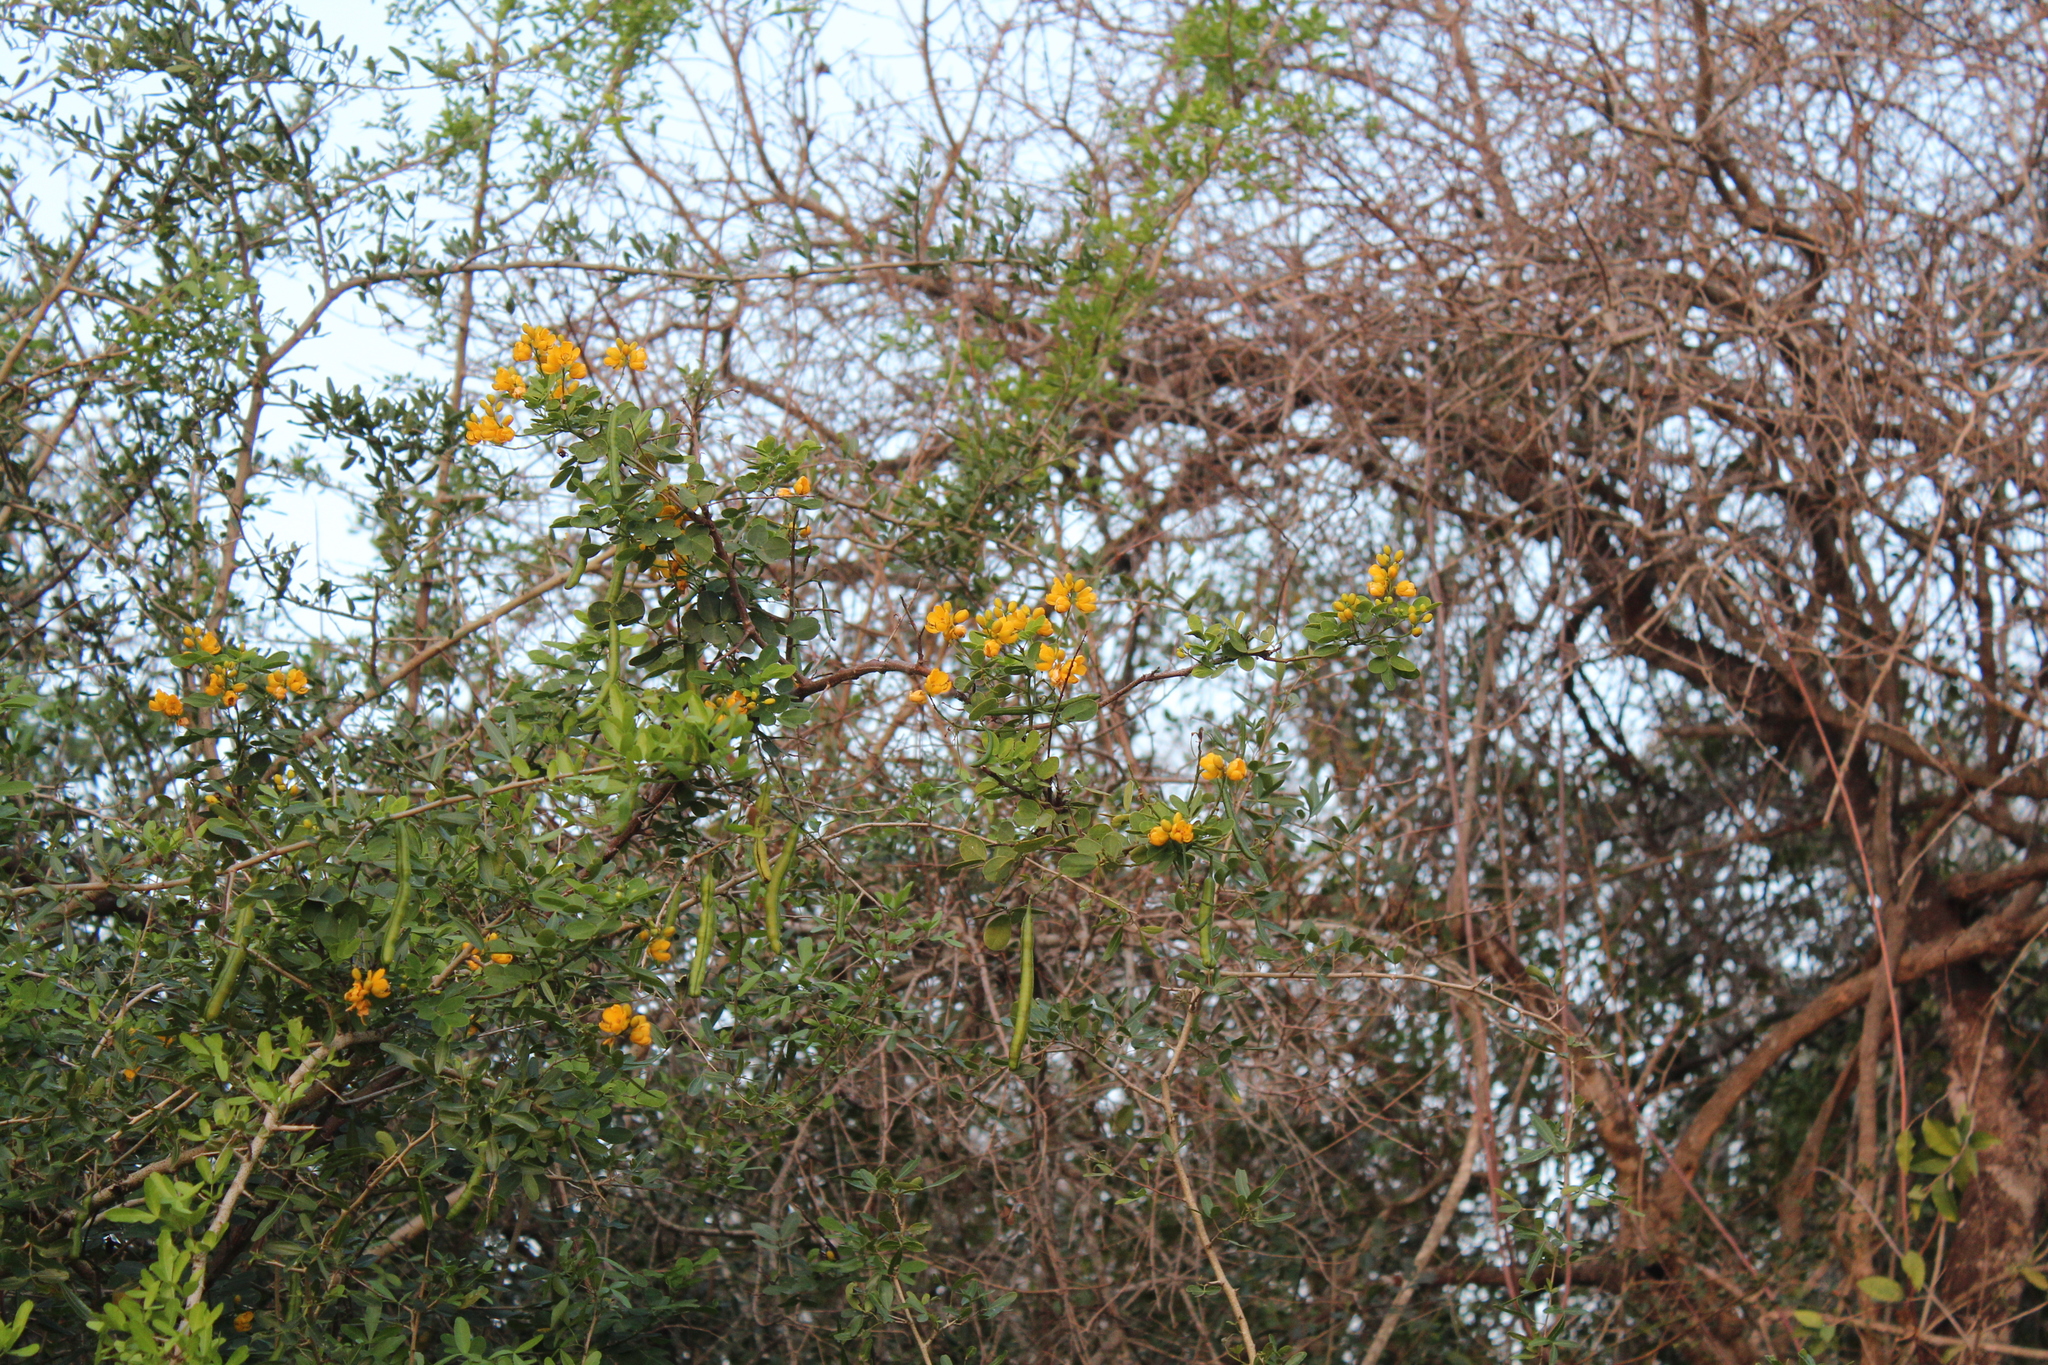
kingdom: Plantae
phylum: Tracheophyta
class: Magnoliopsida
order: Fabales
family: Fabaceae
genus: Senna
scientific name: Senna bicapsularis
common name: Christmasbush
